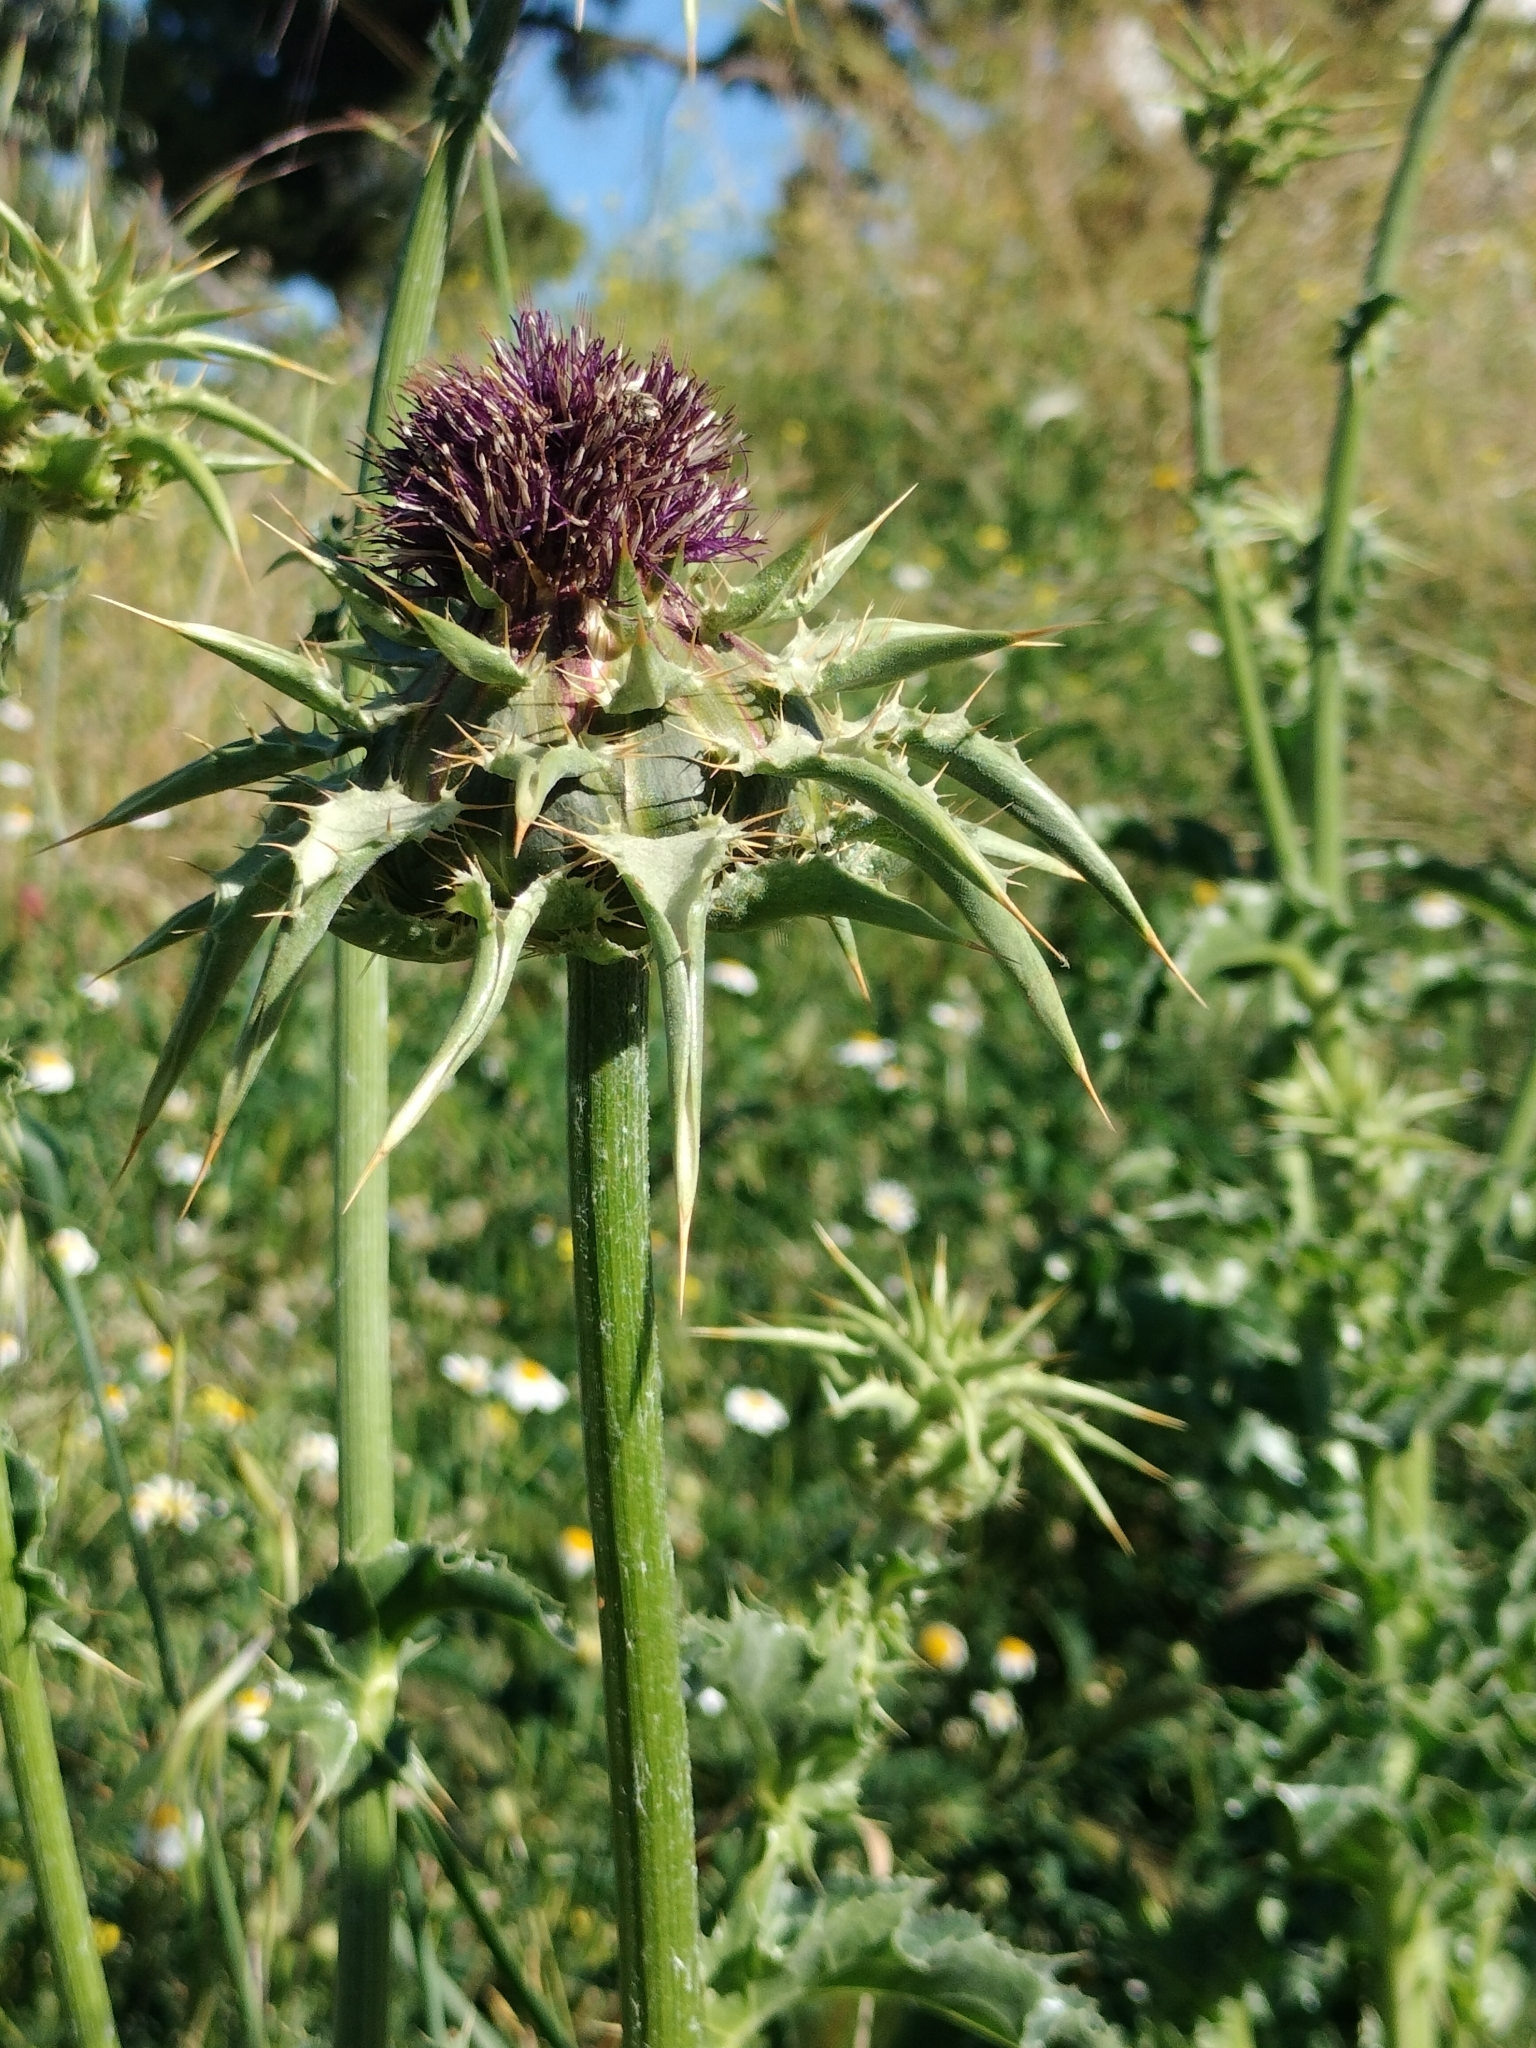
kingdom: Plantae
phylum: Tracheophyta
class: Magnoliopsida
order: Asterales
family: Asteraceae
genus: Silybum
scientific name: Silybum marianum
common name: Milk thistle
